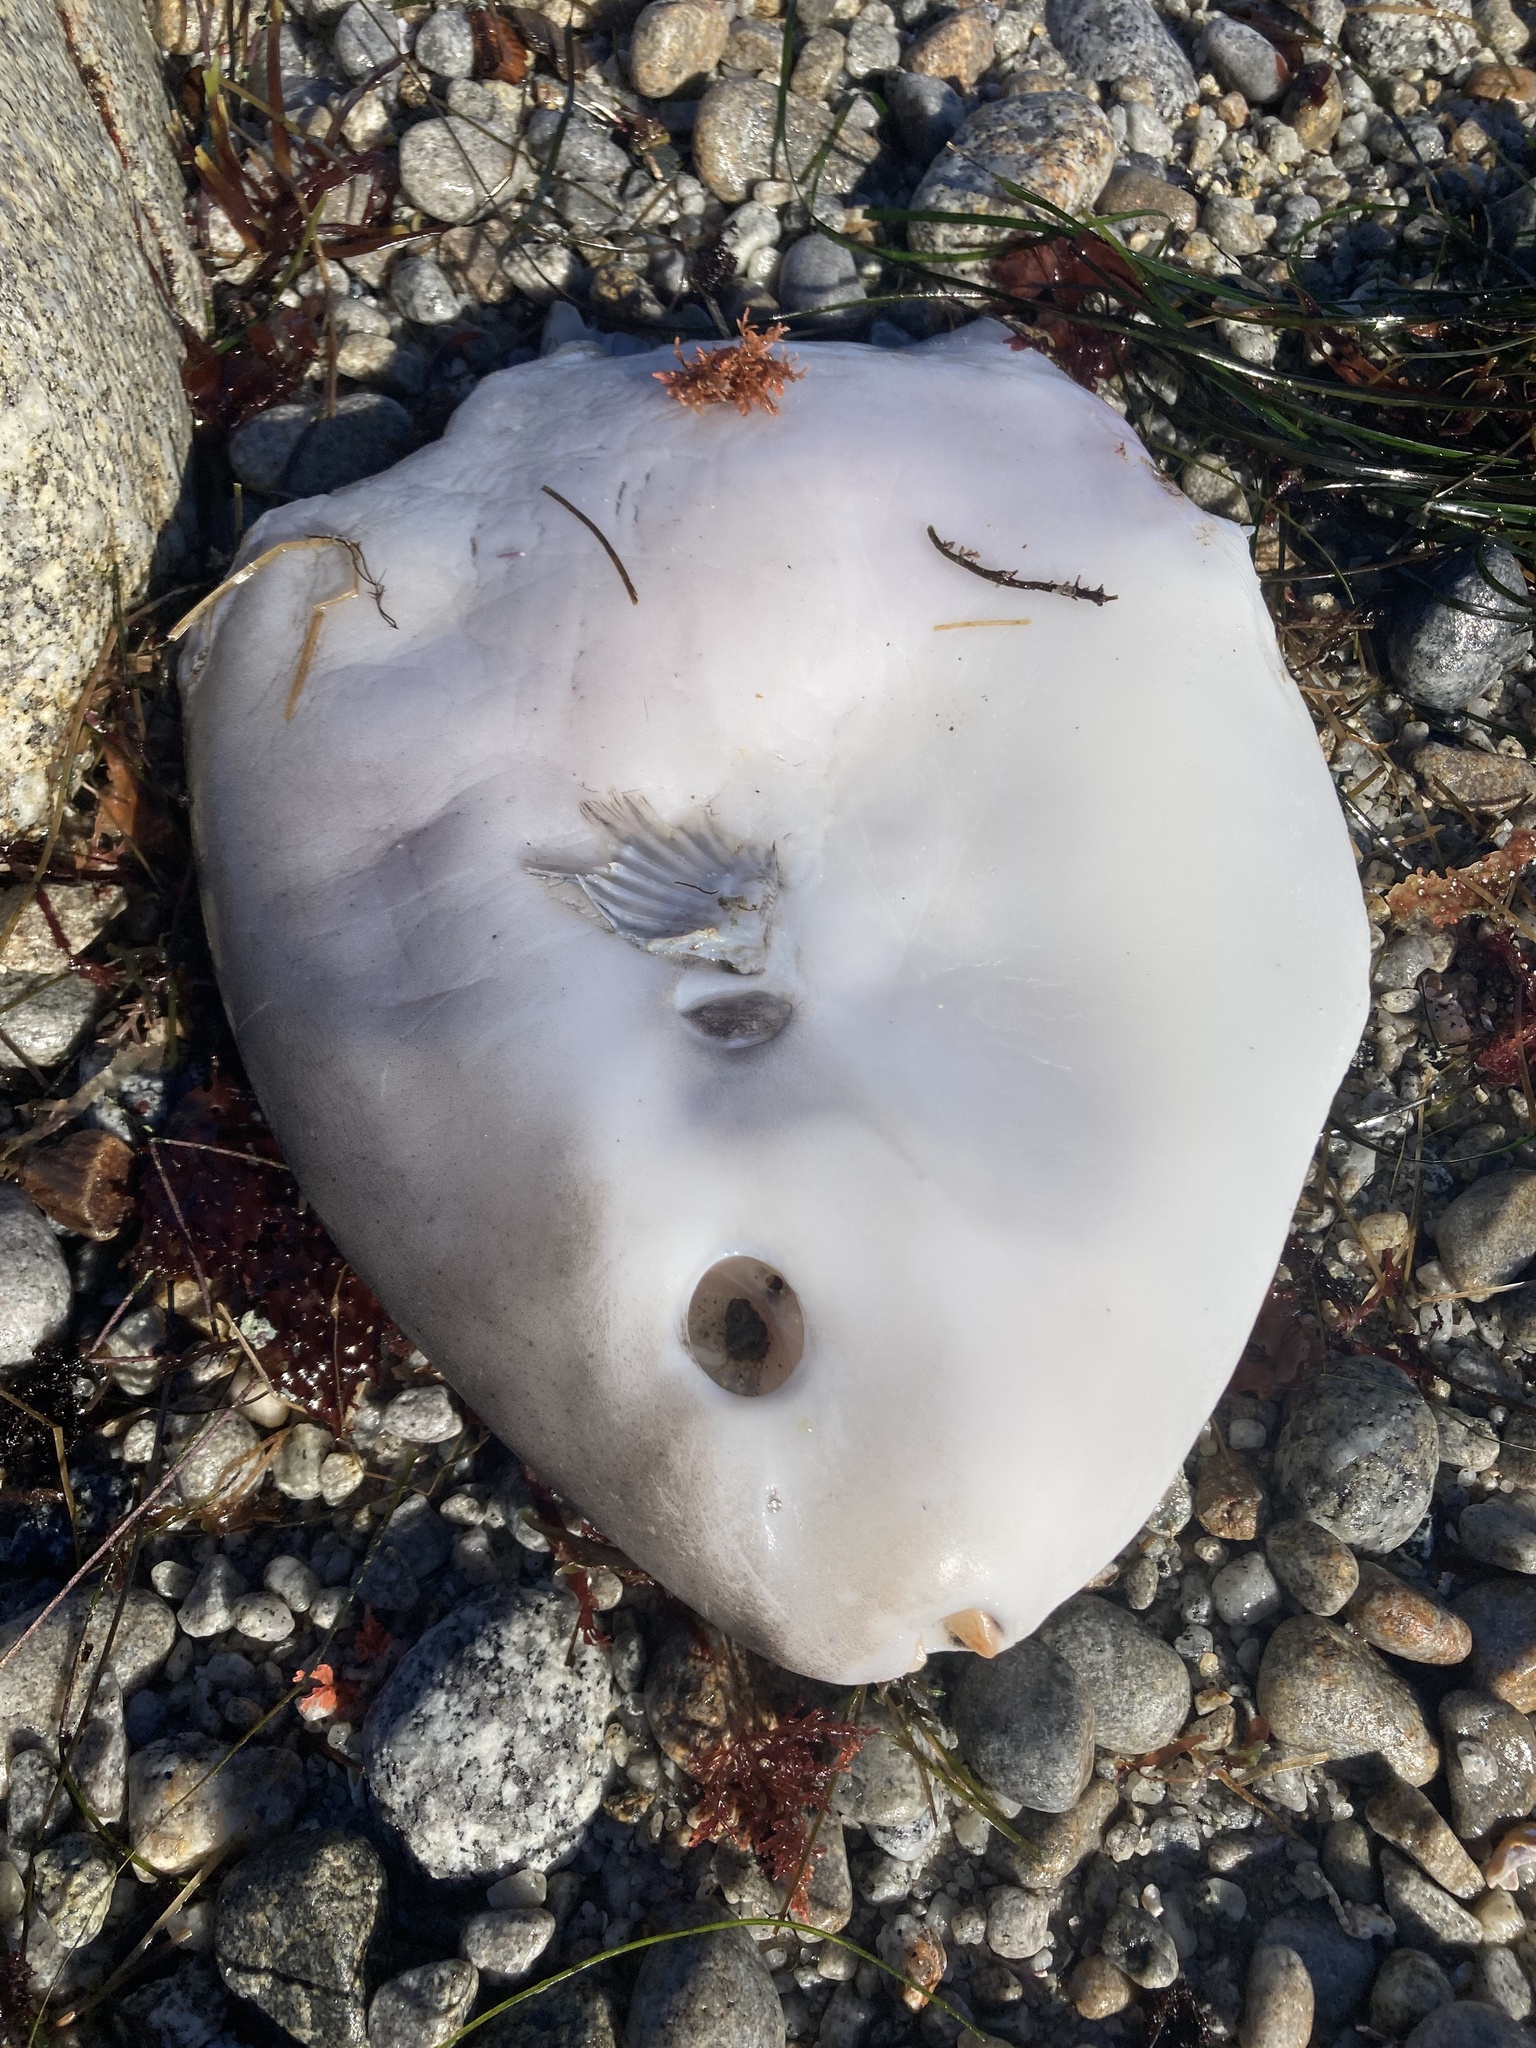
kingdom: Animalia
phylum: Chordata
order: Tetraodontiformes
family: Molidae
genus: Mola
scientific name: Mola mola
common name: Ocean sunfish
